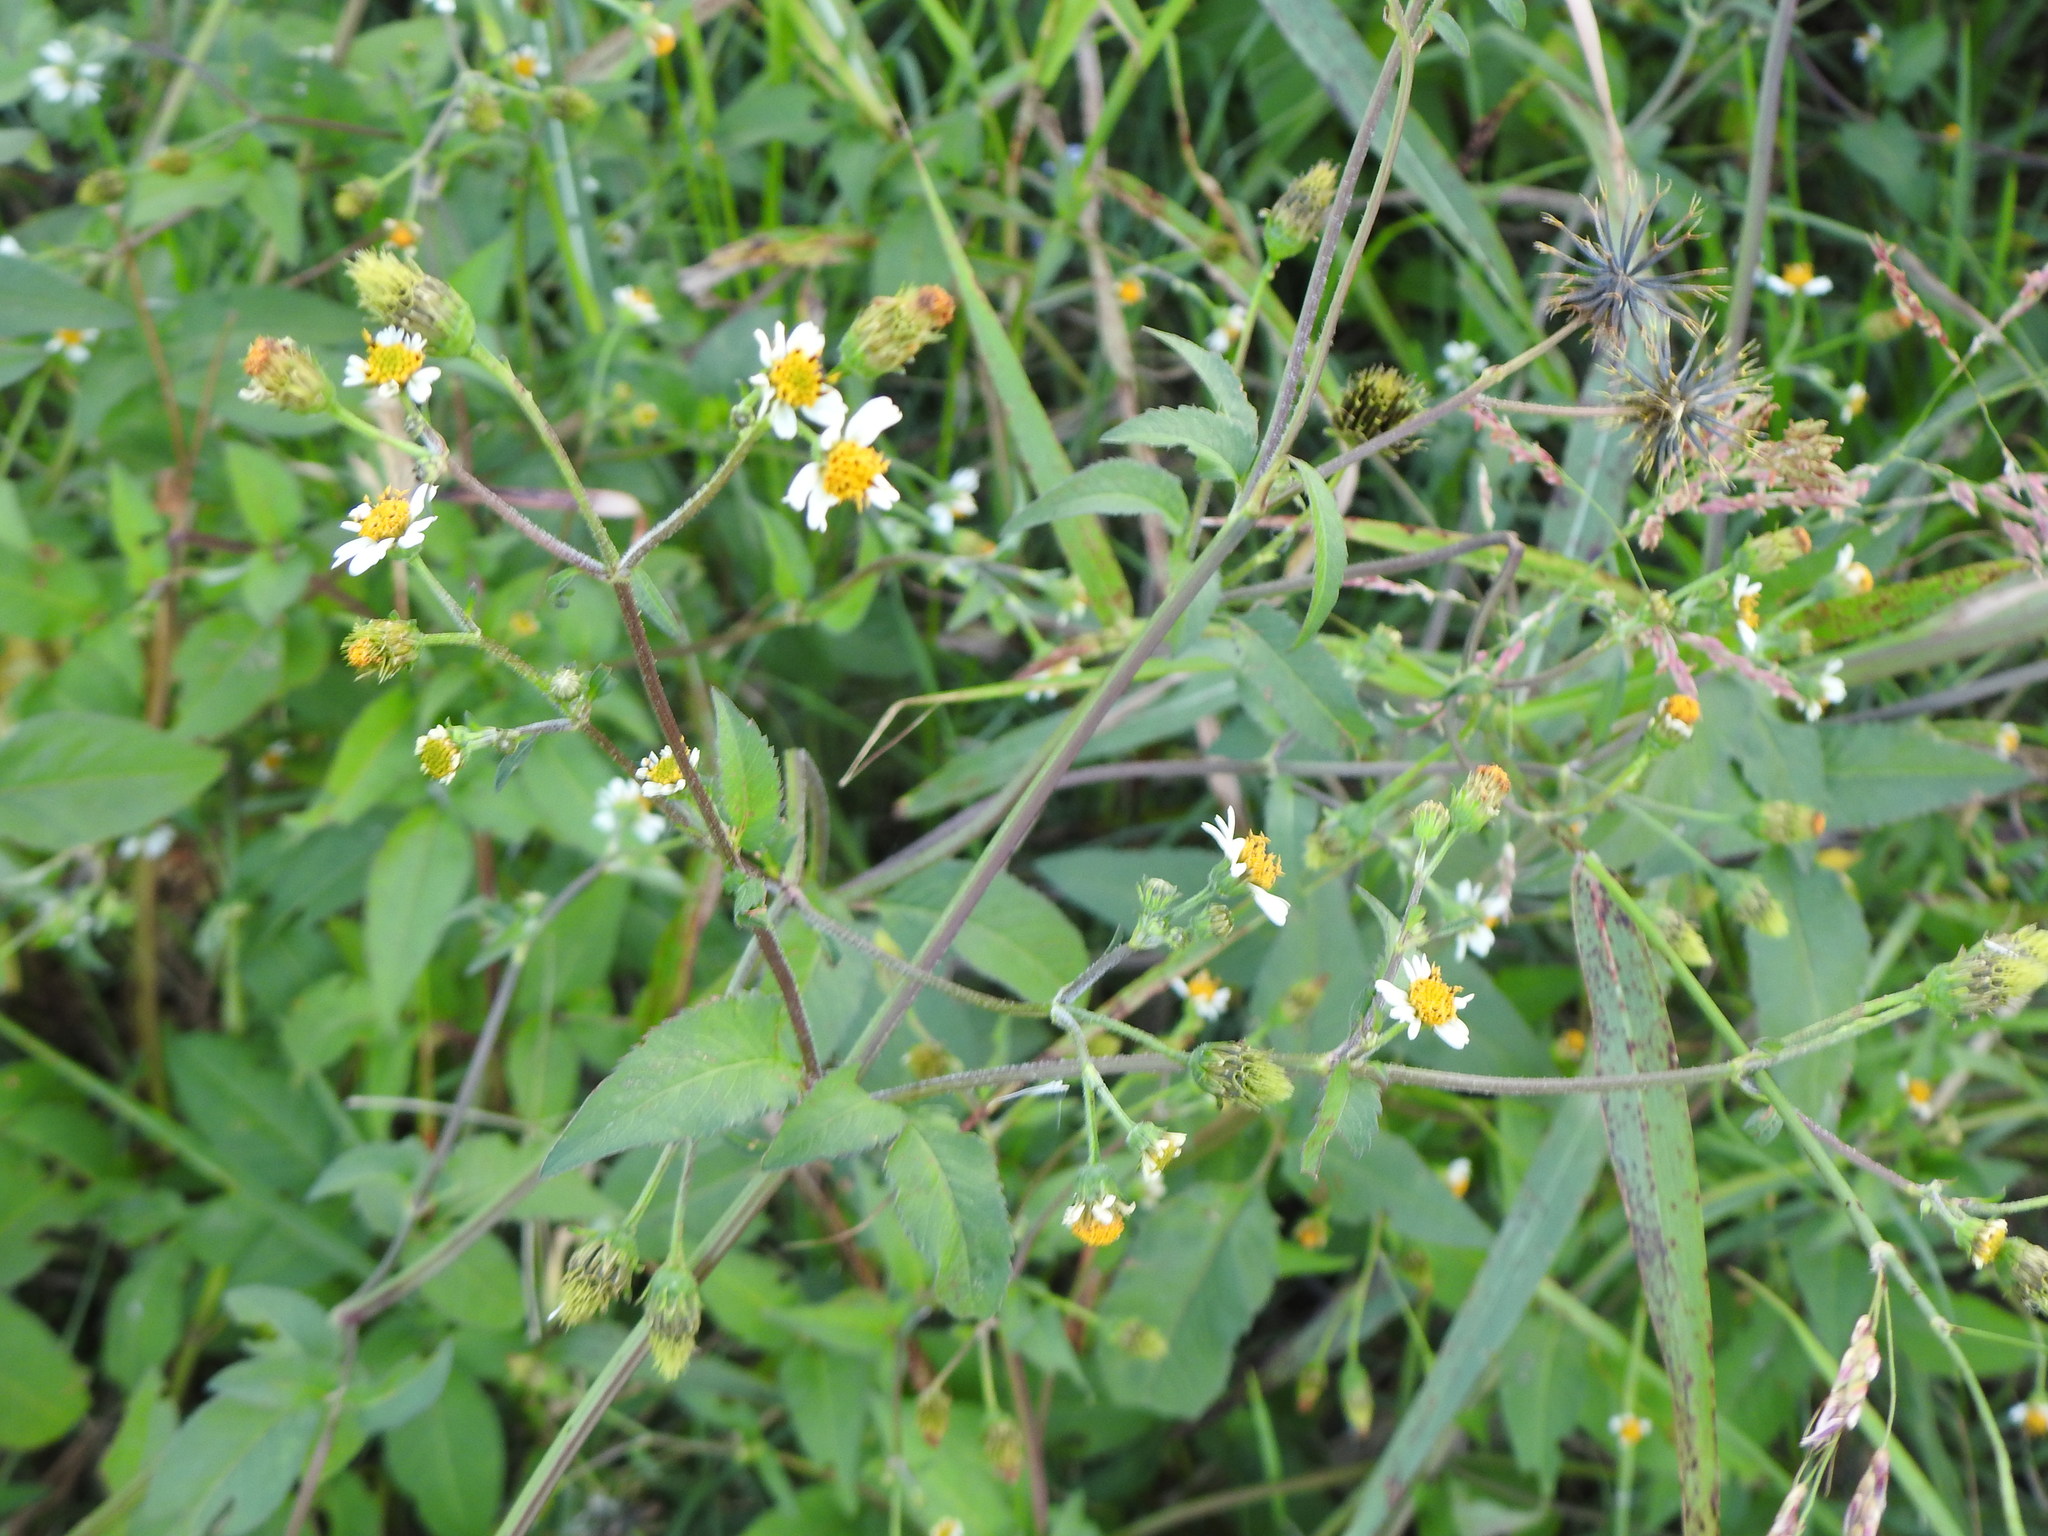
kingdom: Plantae
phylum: Tracheophyta
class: Magnoliopsida
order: Asterales
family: Asteraceae
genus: Bidens
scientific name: Bidens pilosa
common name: Black-jack
